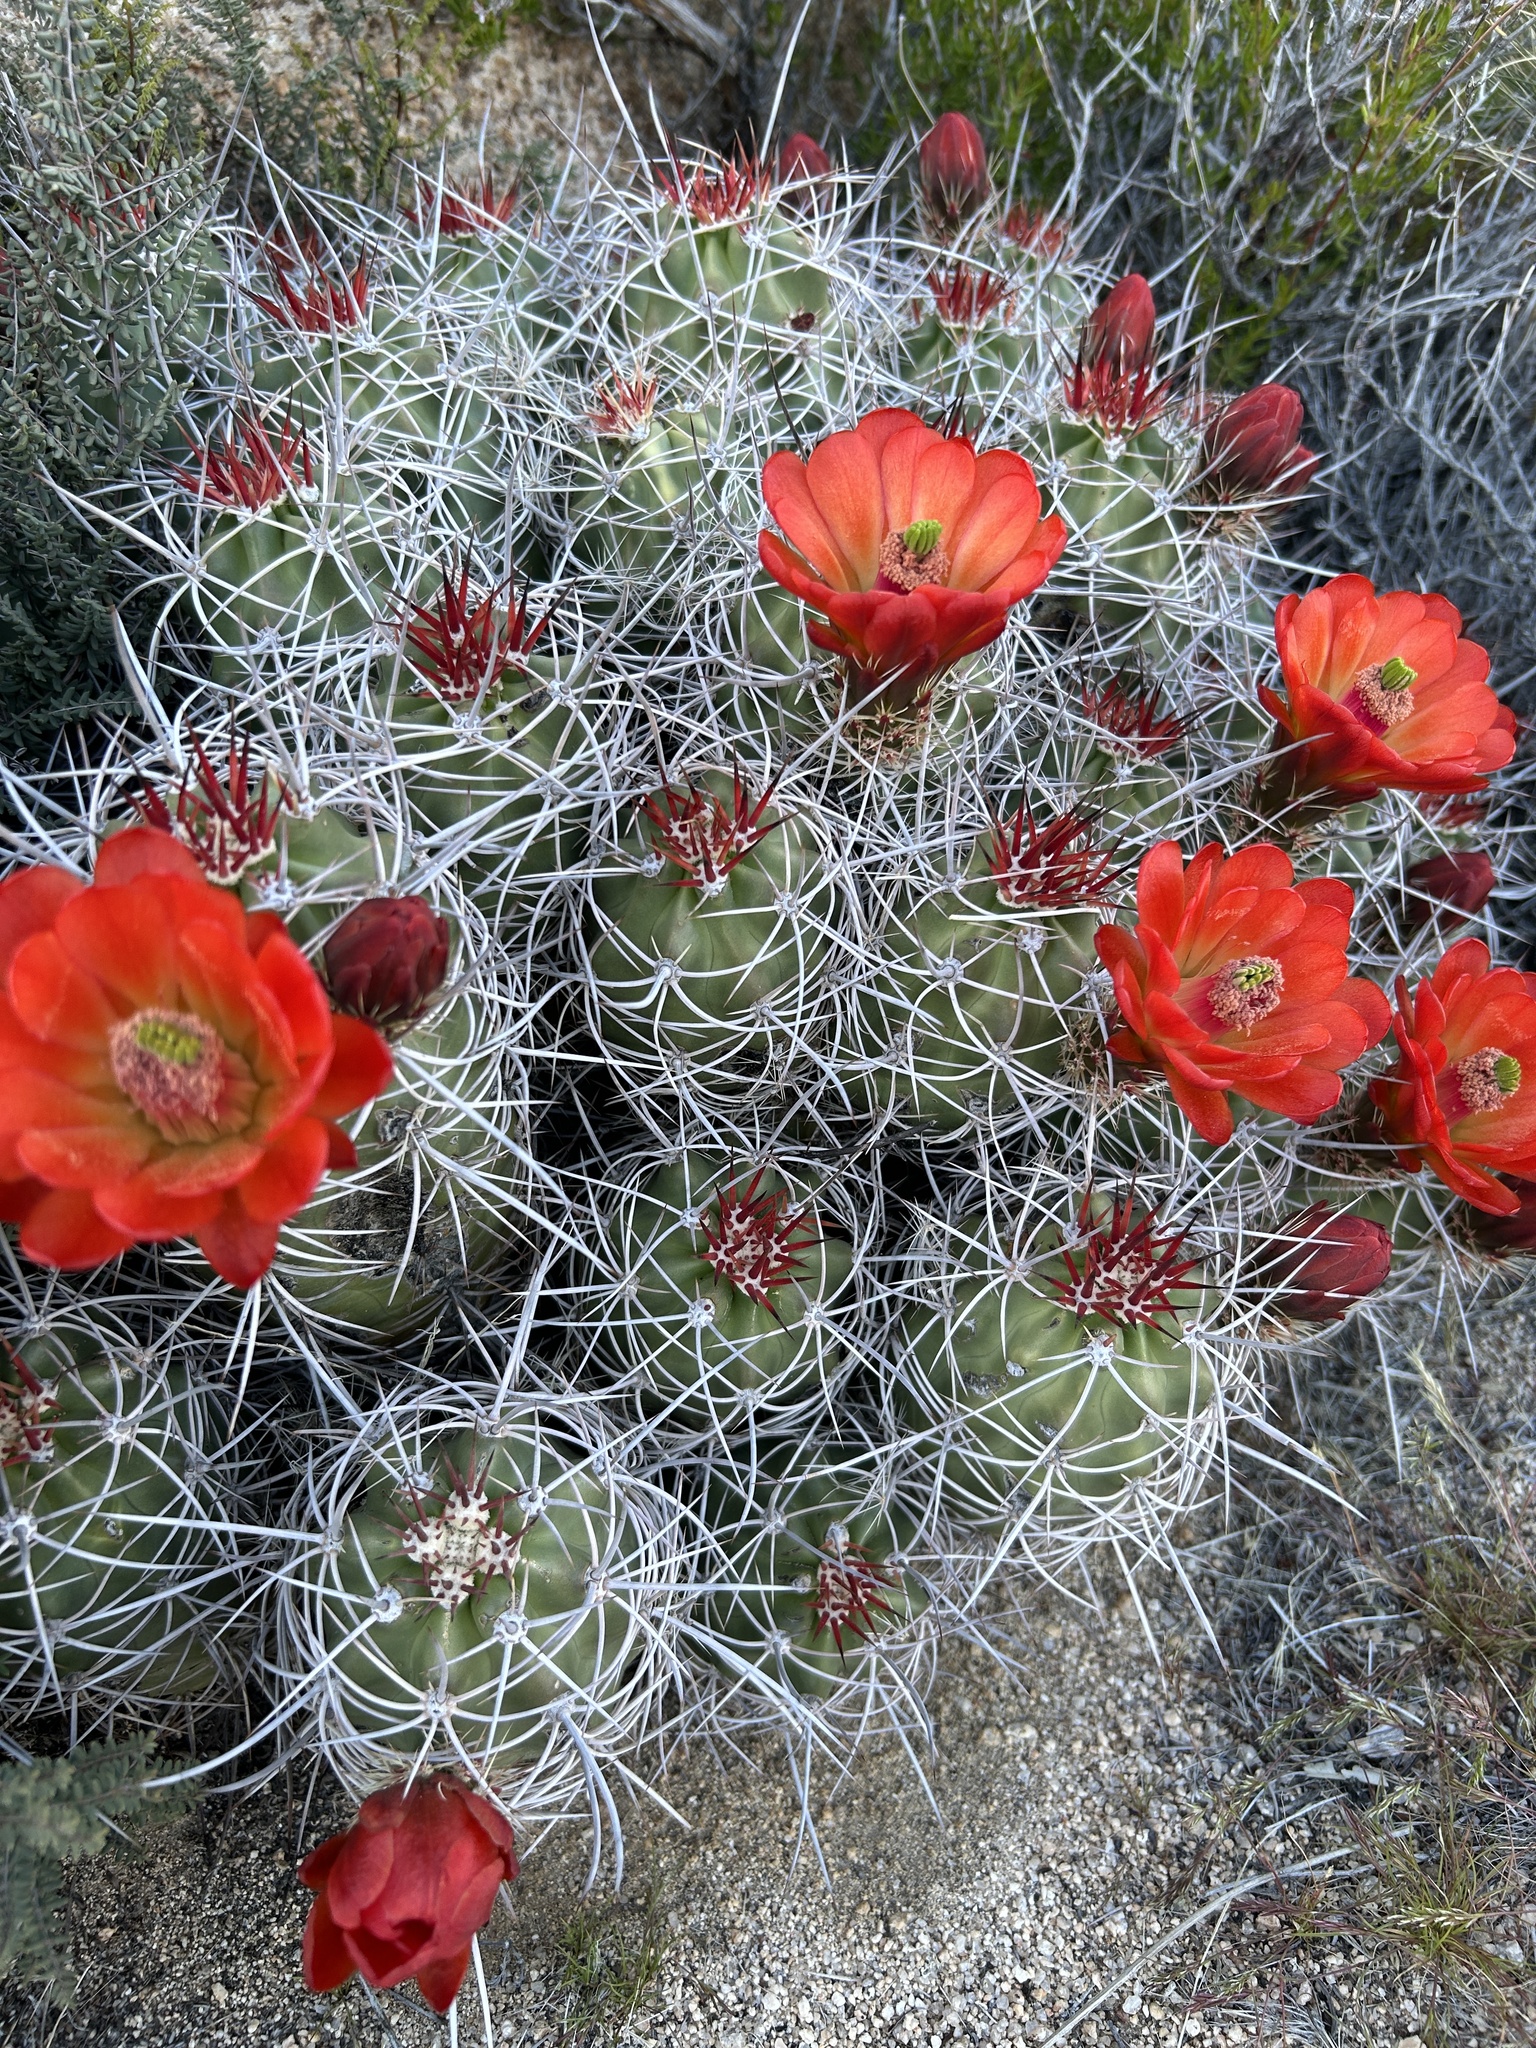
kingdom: Plantae
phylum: Tracheophyta
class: Magnoliopsida
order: Caryophyllales
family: Cactaceae
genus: Echinocereus
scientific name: Echinocereus triglochidiatus
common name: Claretcup hedgehog
